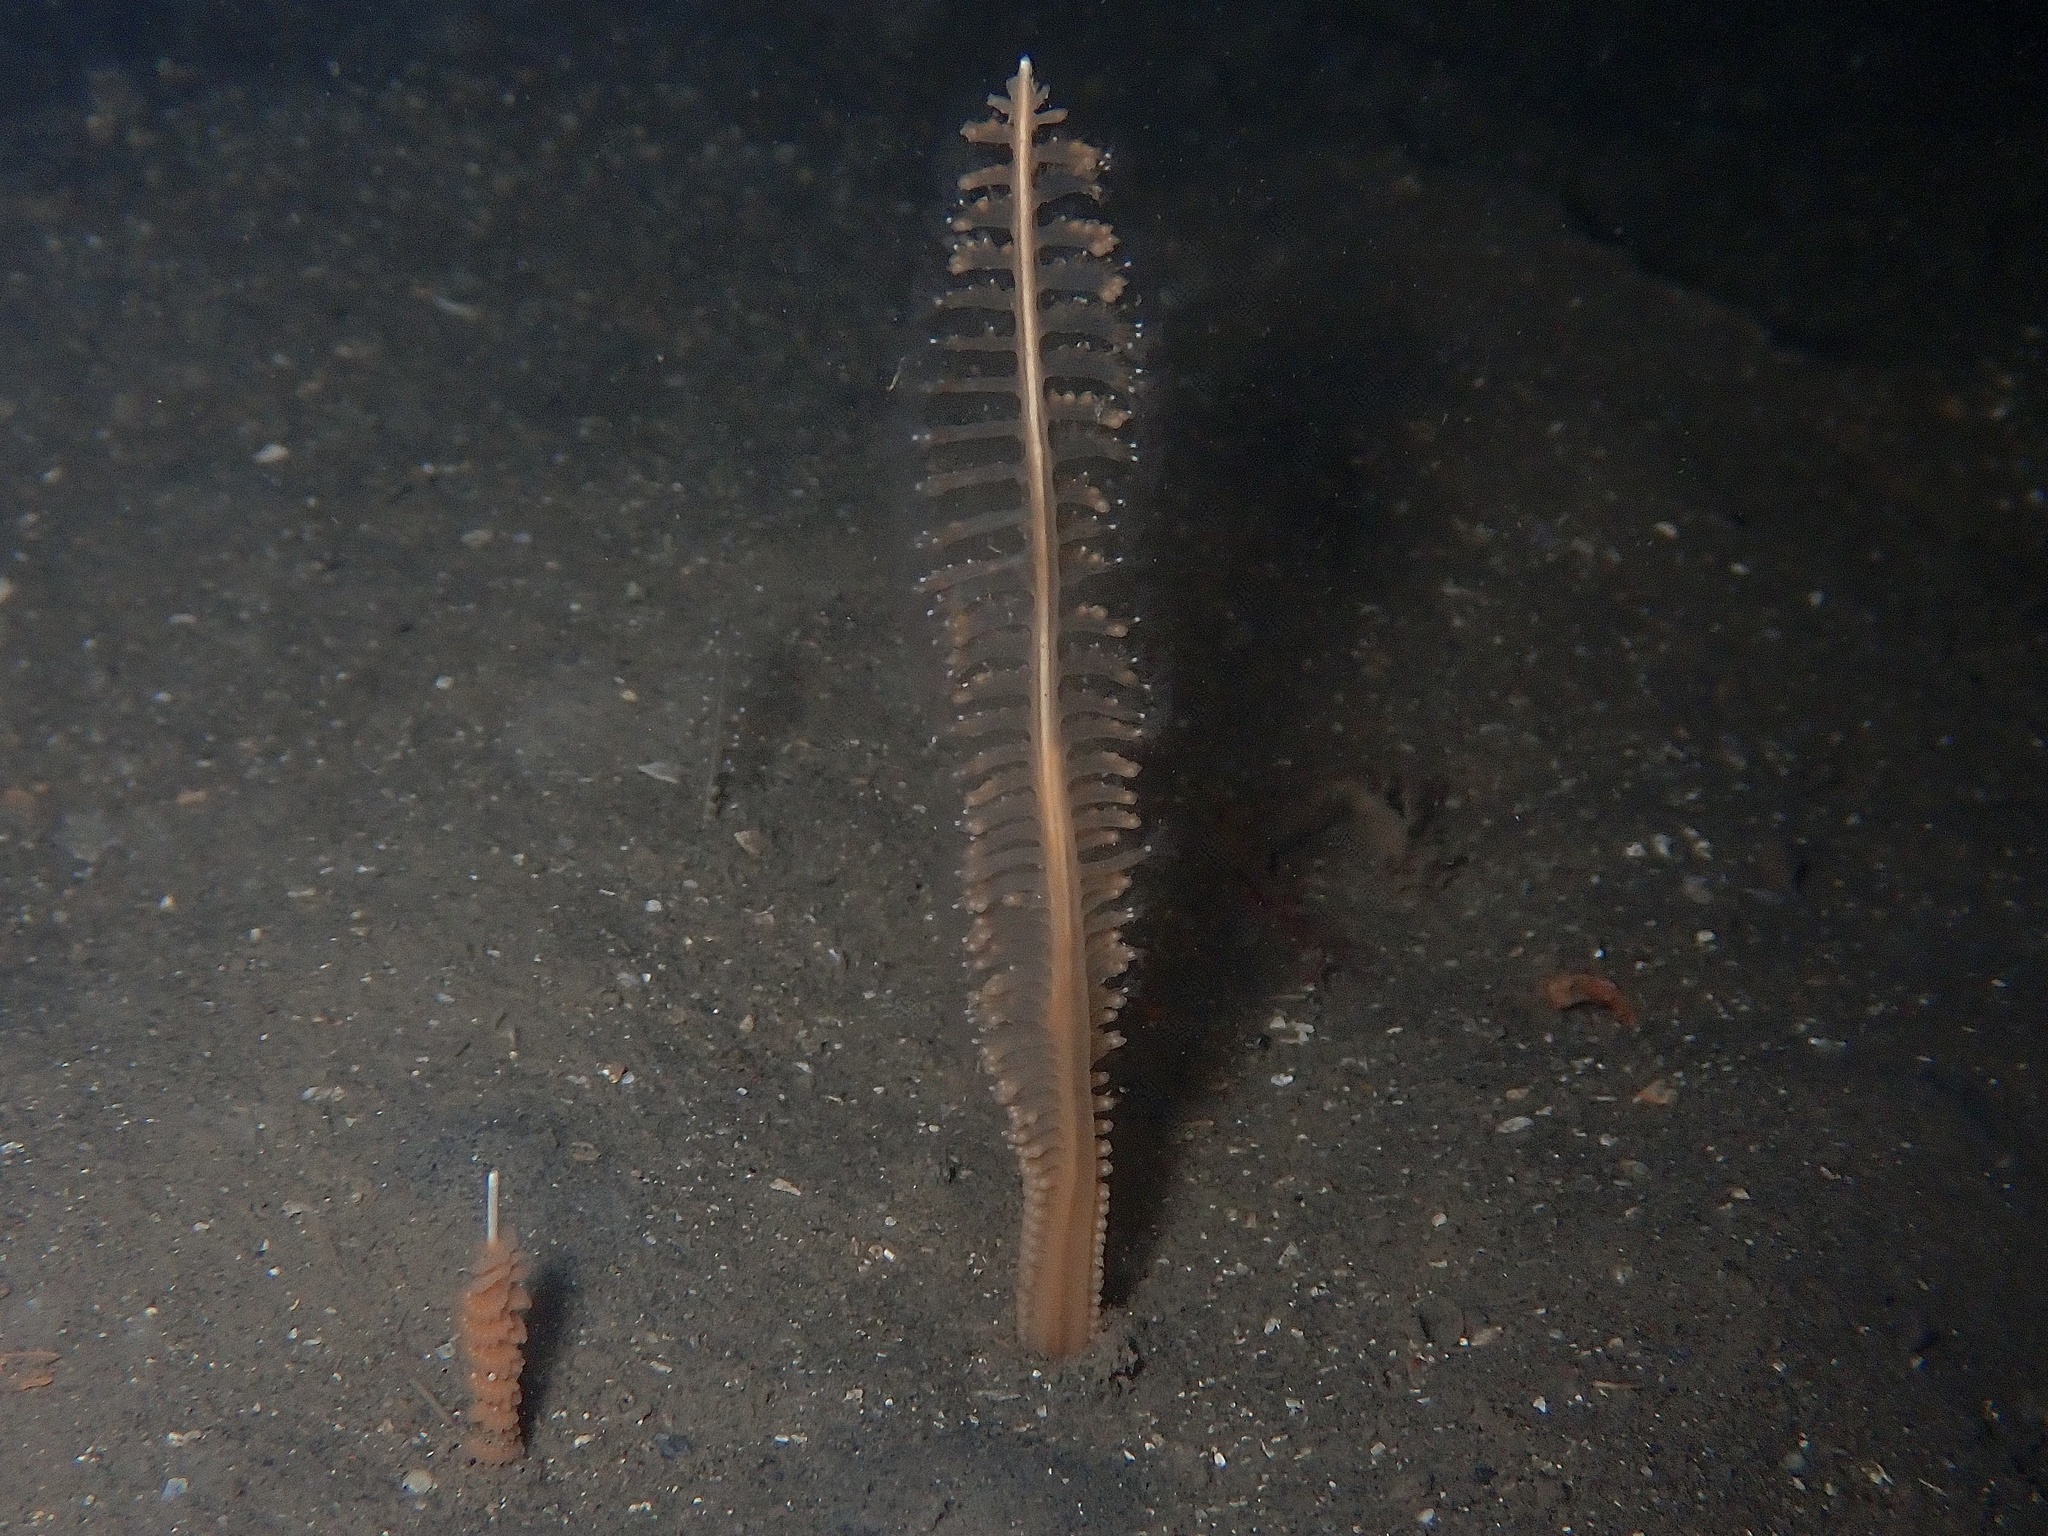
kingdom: Animalia
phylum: Cnidaria
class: Anthozoa
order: Scleralcyonacea
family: Virgulariidae
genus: Virgularia
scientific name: Virgularia mirabilis
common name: Slender sea pen
